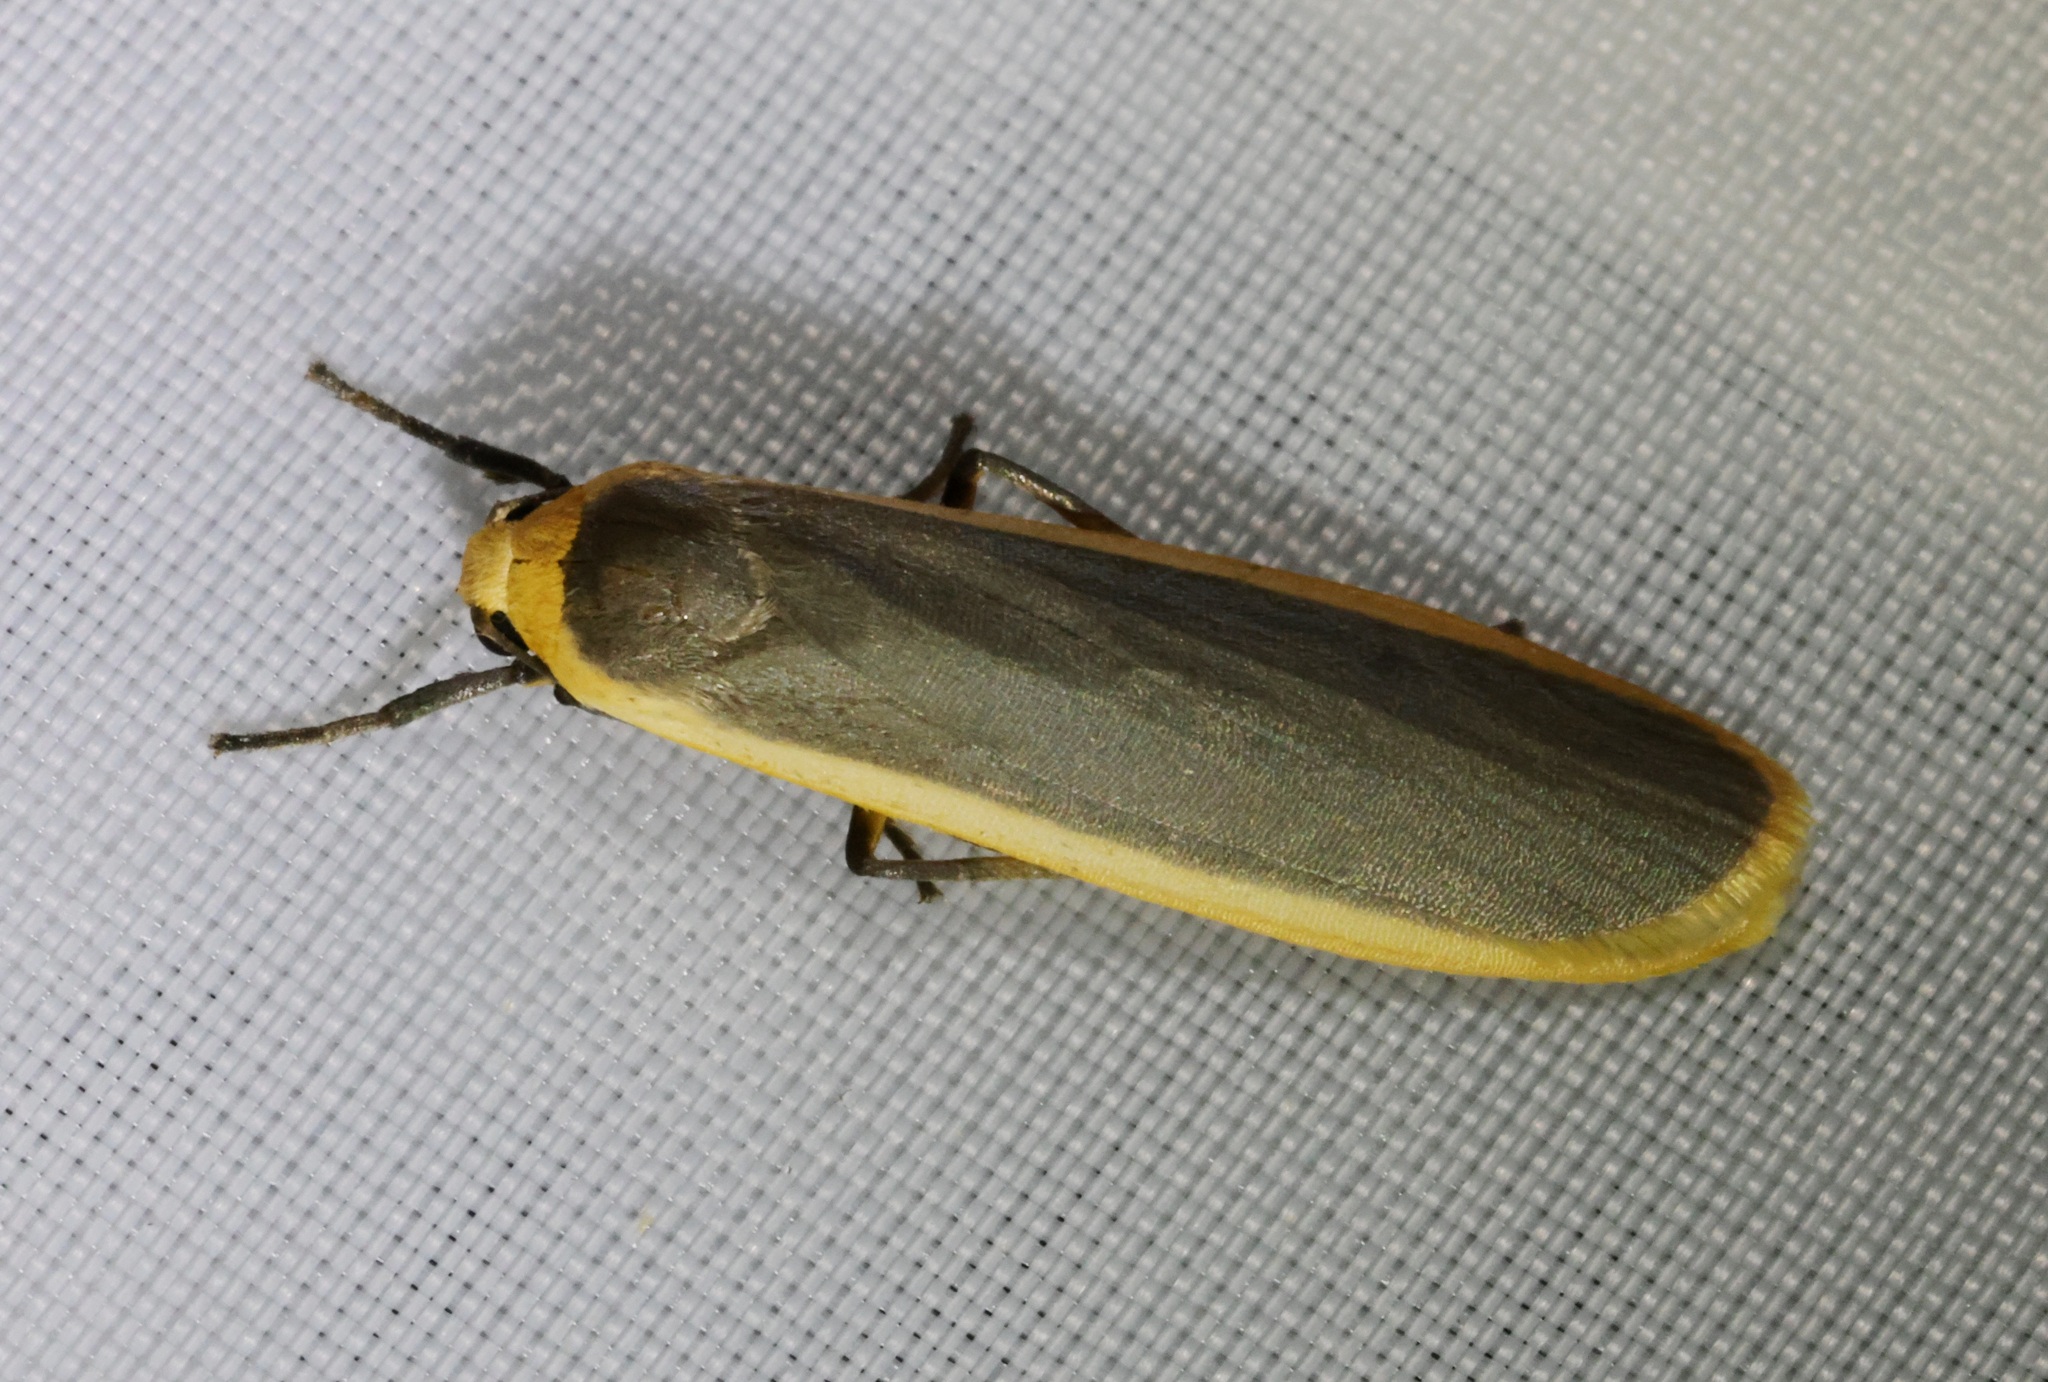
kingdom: Animalia
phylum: Arthropoda
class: Insecta
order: Lepidoptera
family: Erebidae
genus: Brunia
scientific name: Brunia antica
